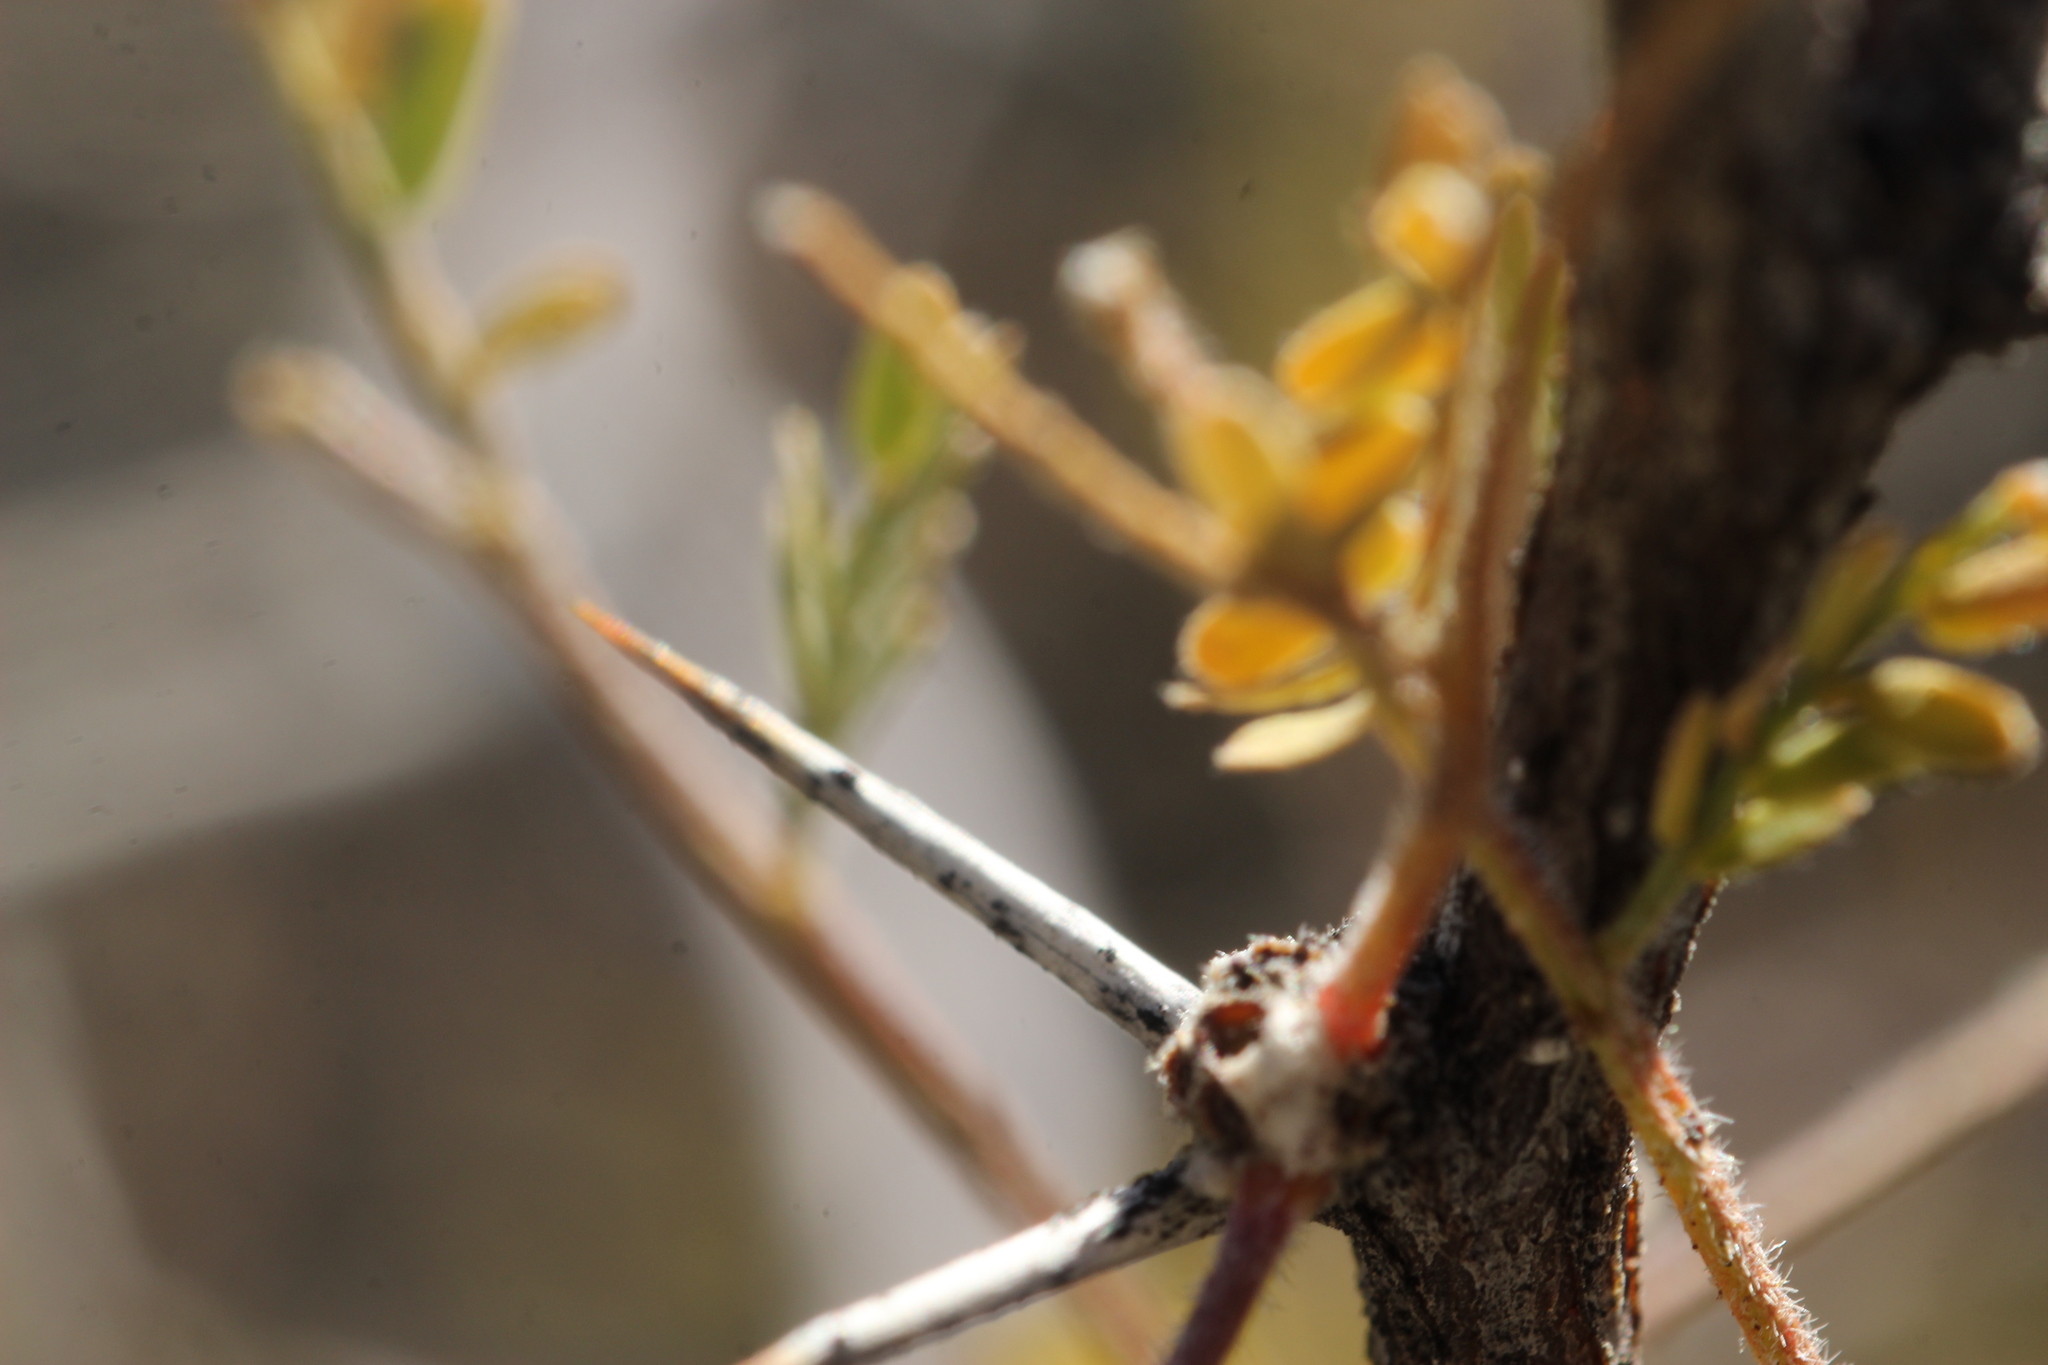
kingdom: Plantae
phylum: Tracheophyta
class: Magnoliopsida
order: Fabales
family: Fabaceae
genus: Vachellia
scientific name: Vachellia constricta
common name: Mescat acacia
